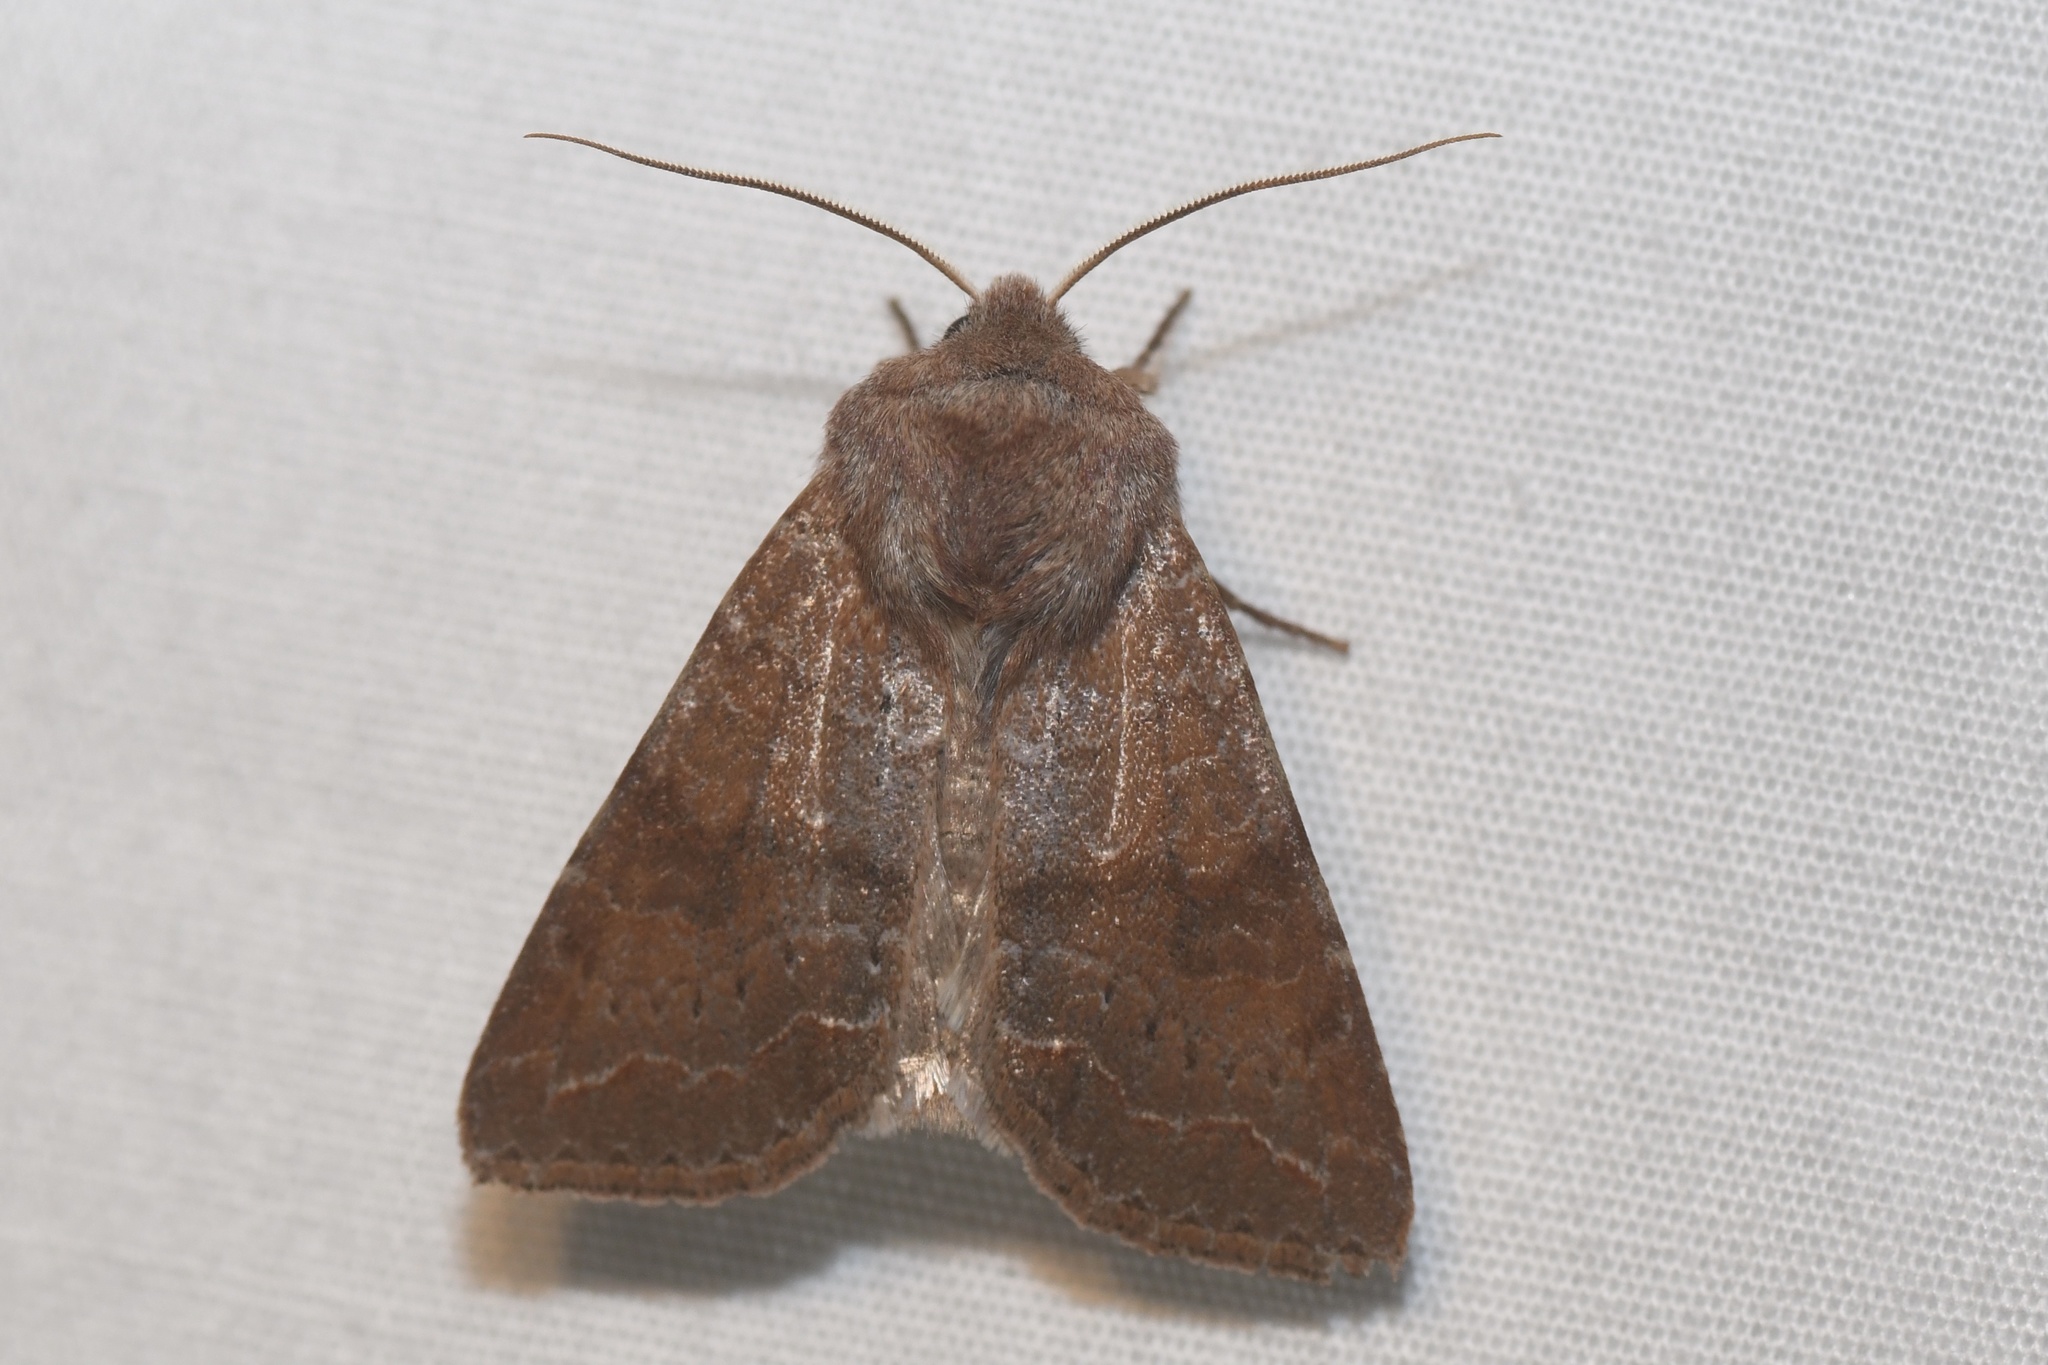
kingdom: Animalia
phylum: Arthropoda
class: Insecta
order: Lepidoptera
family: Noctuidae
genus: Orthosia
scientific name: Orthosia revicta
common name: Rusty whitesided caterpillar
